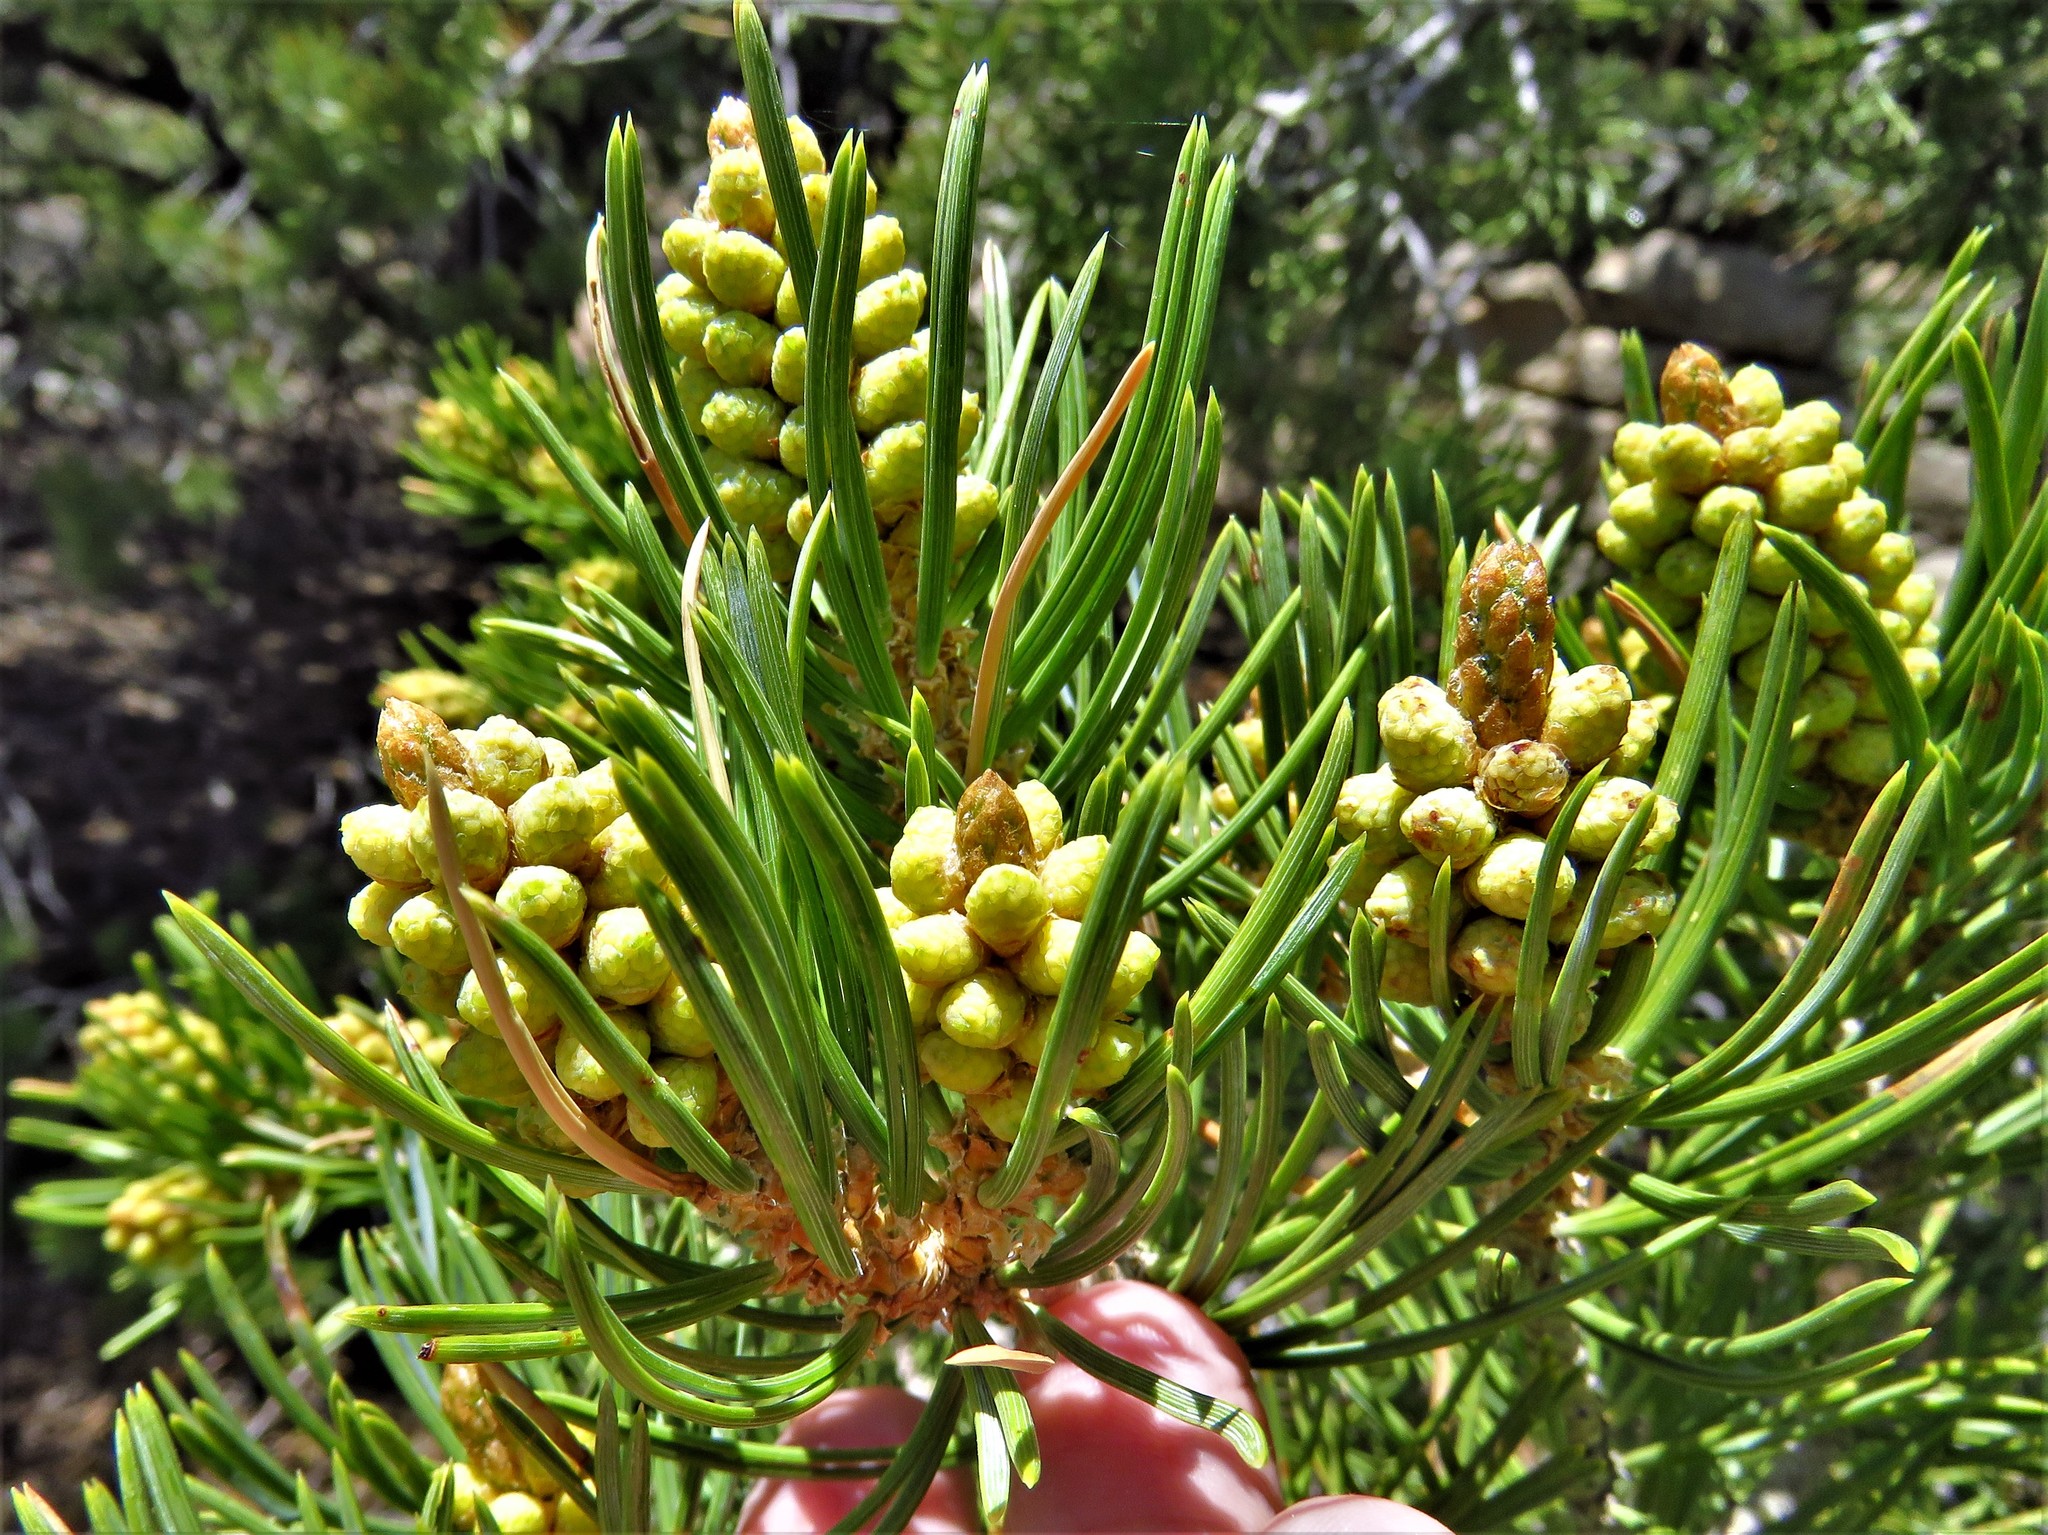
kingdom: Plantae
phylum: Tracheophyta
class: Pinopsida
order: Pinales
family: Pinaceae
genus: Pinus
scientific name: Pinus edulis
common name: Colorado pinyon
